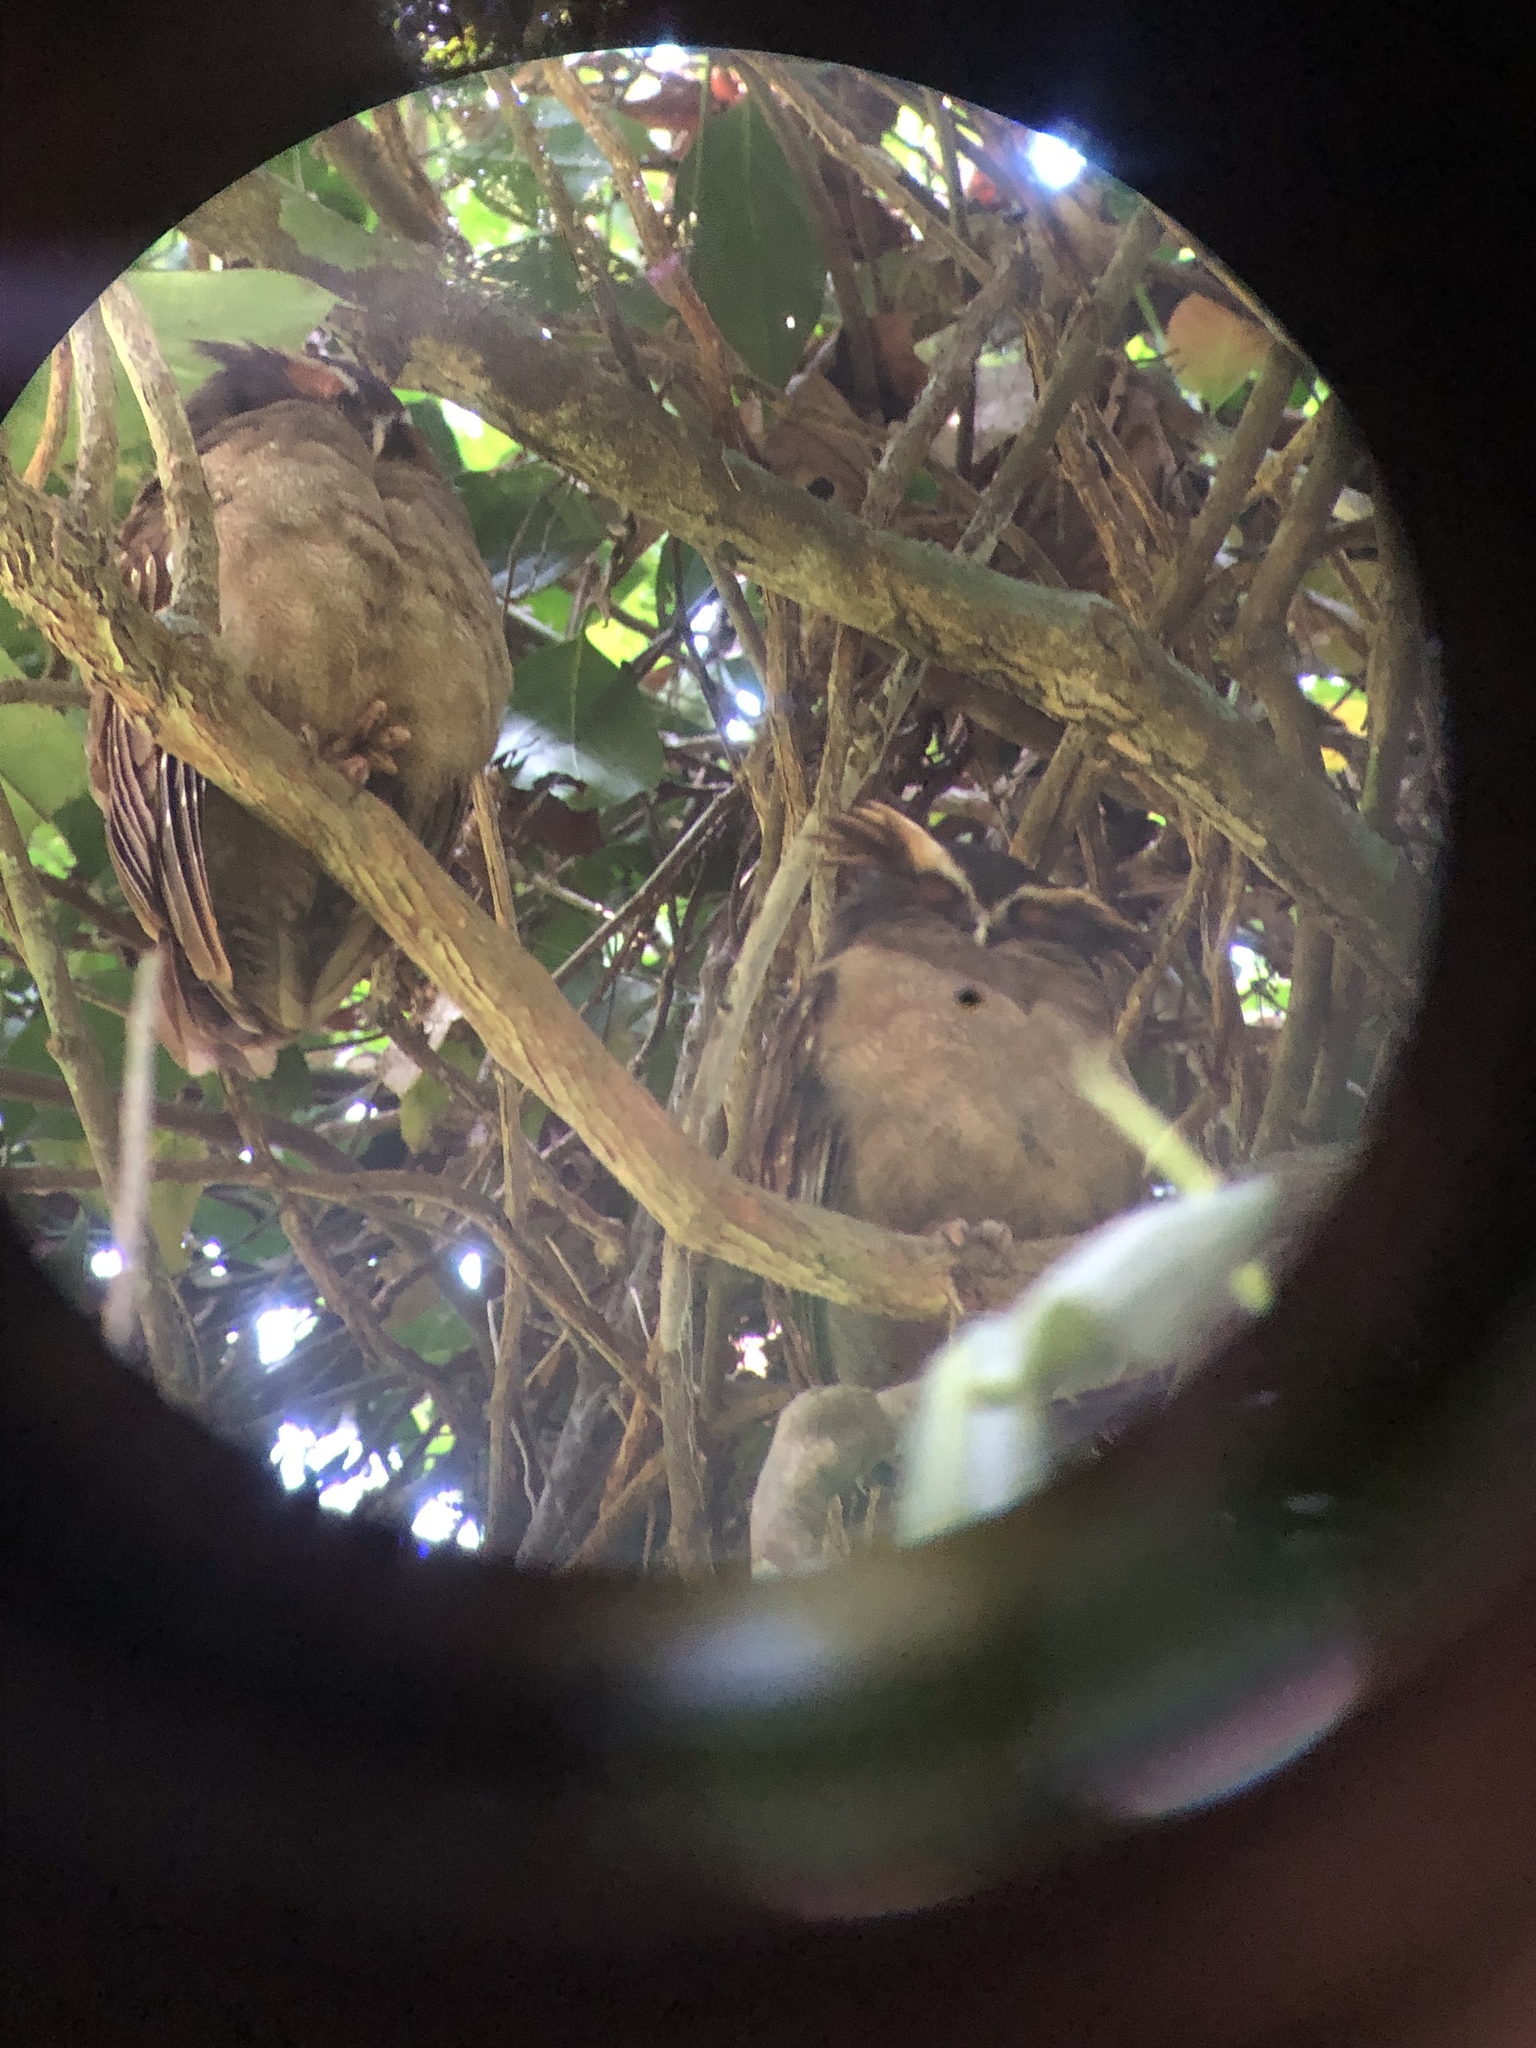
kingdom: Animalia
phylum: Chordata
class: Aves
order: Strigiformes
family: Strigidae
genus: Lophostrix
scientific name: Lophostrix cristata
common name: Crested owl
